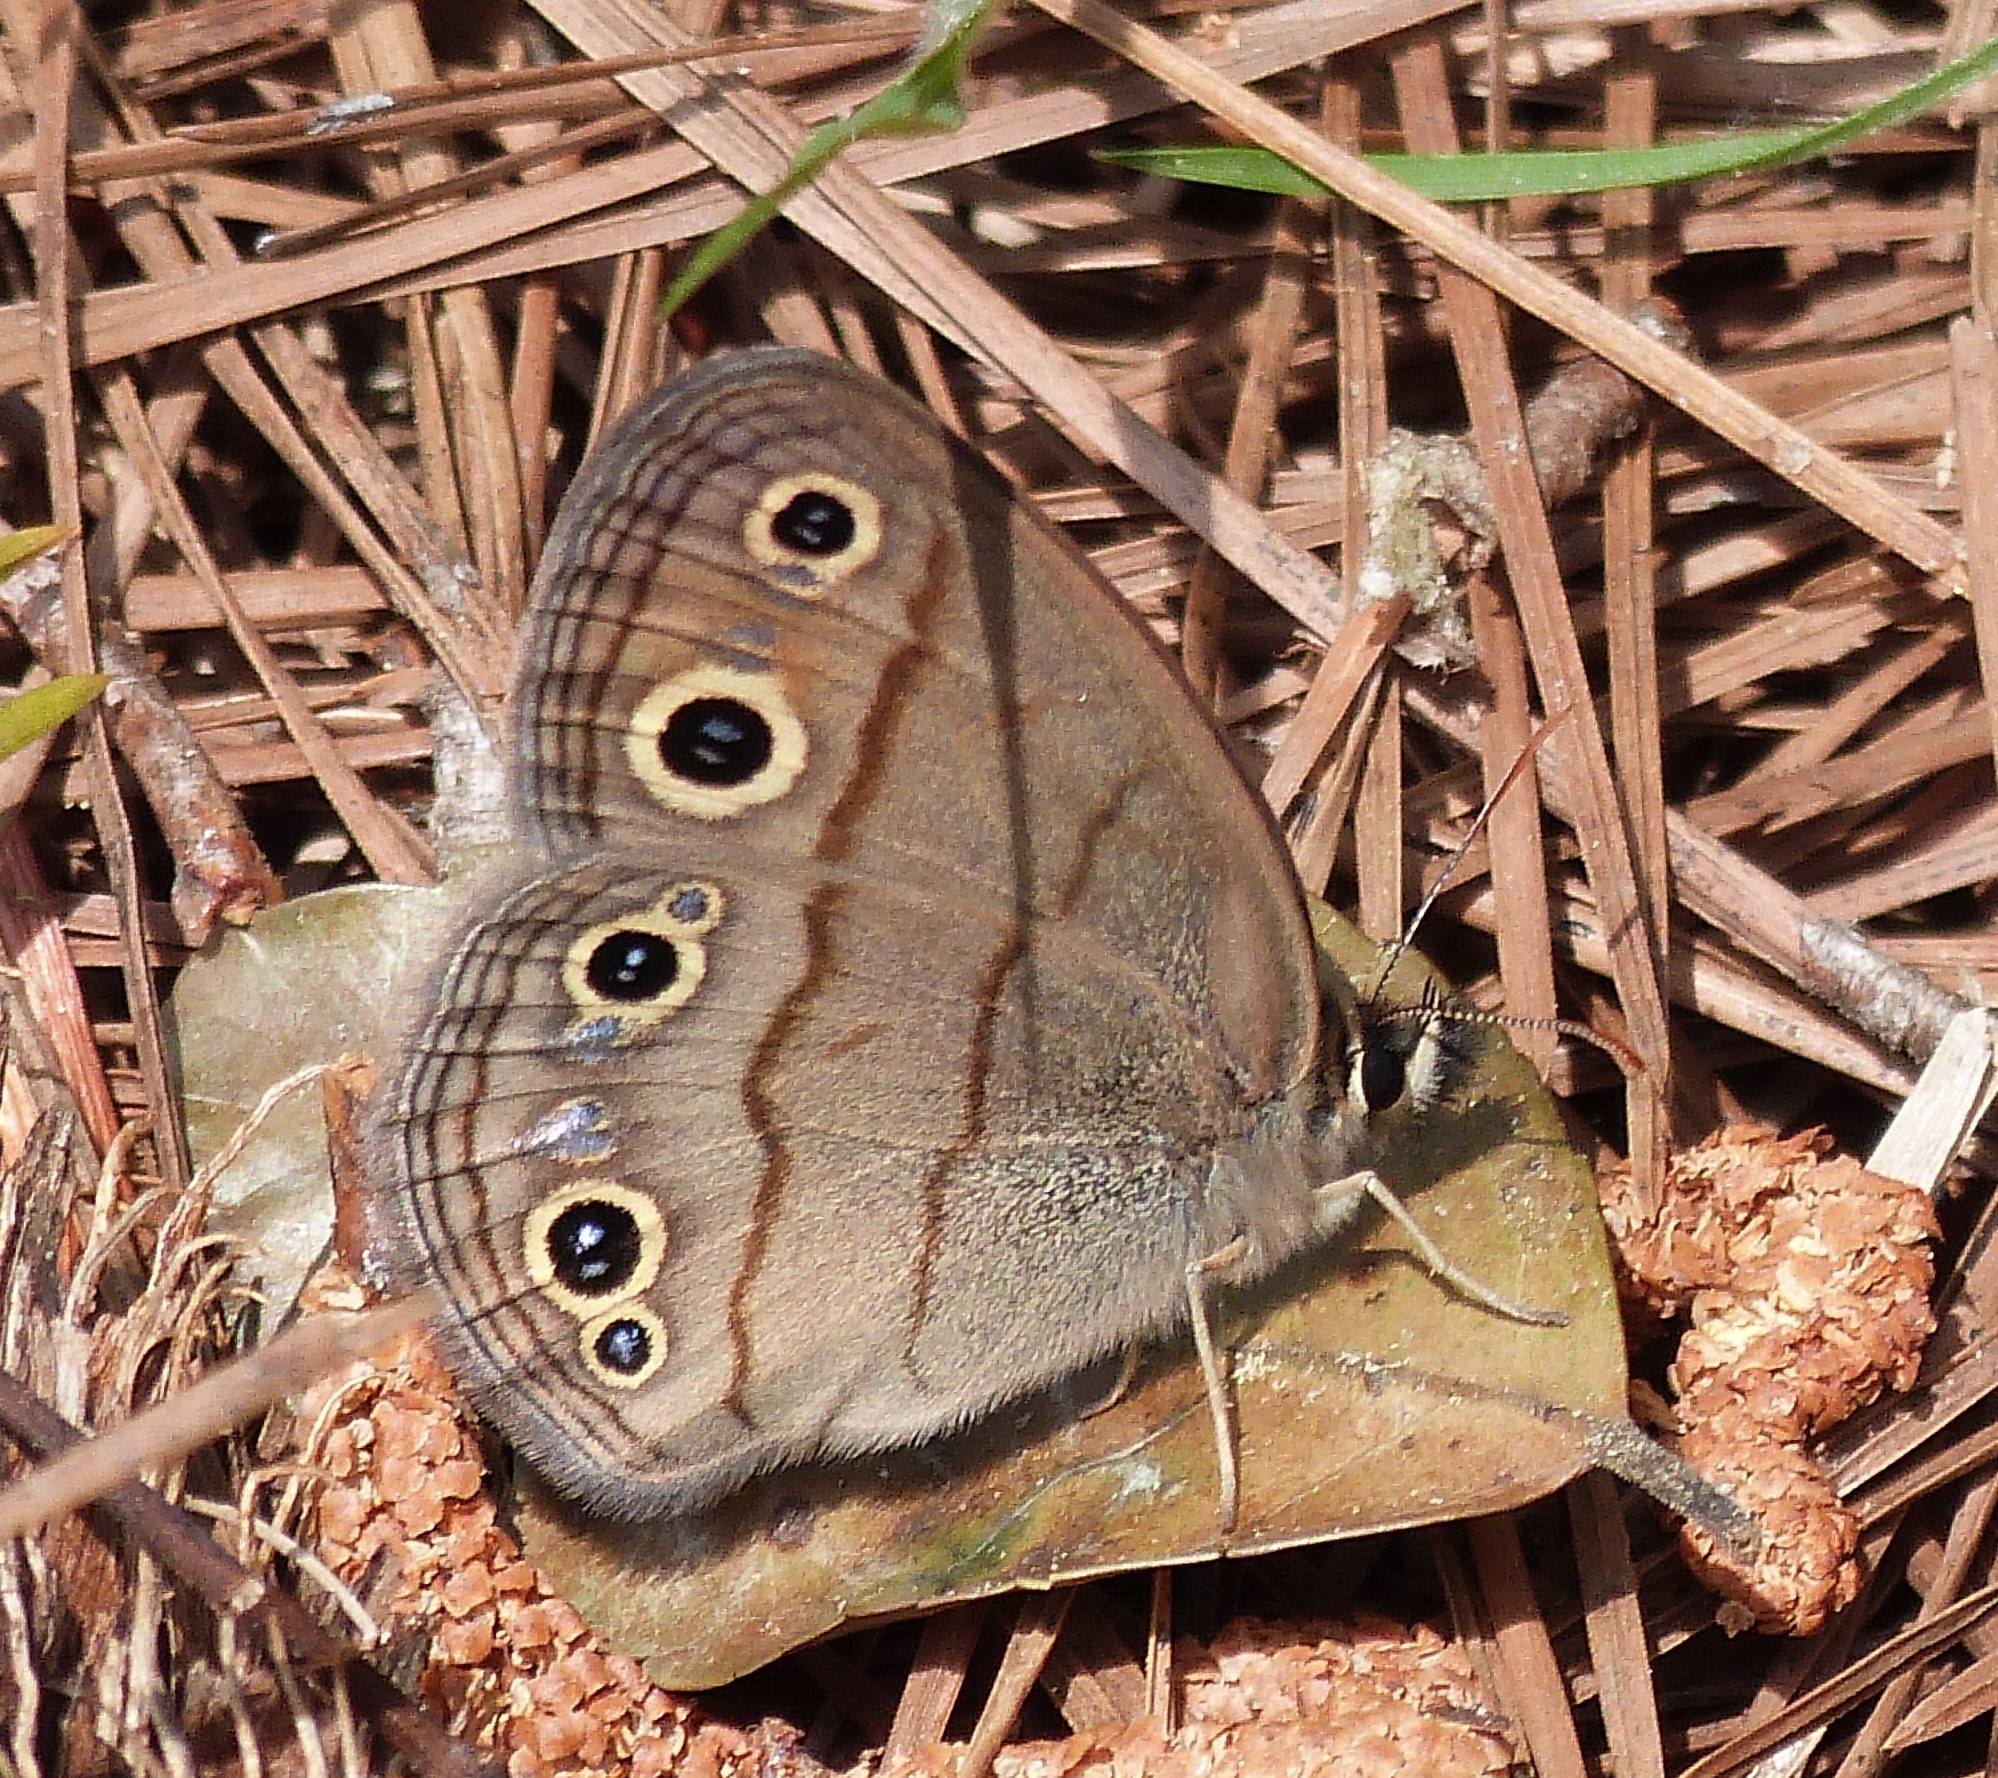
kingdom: Animalia
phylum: Arthropoda
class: Insecta
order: Lepidoptera
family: Nymphalidae
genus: Euptychia
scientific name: Euptychia cymela
